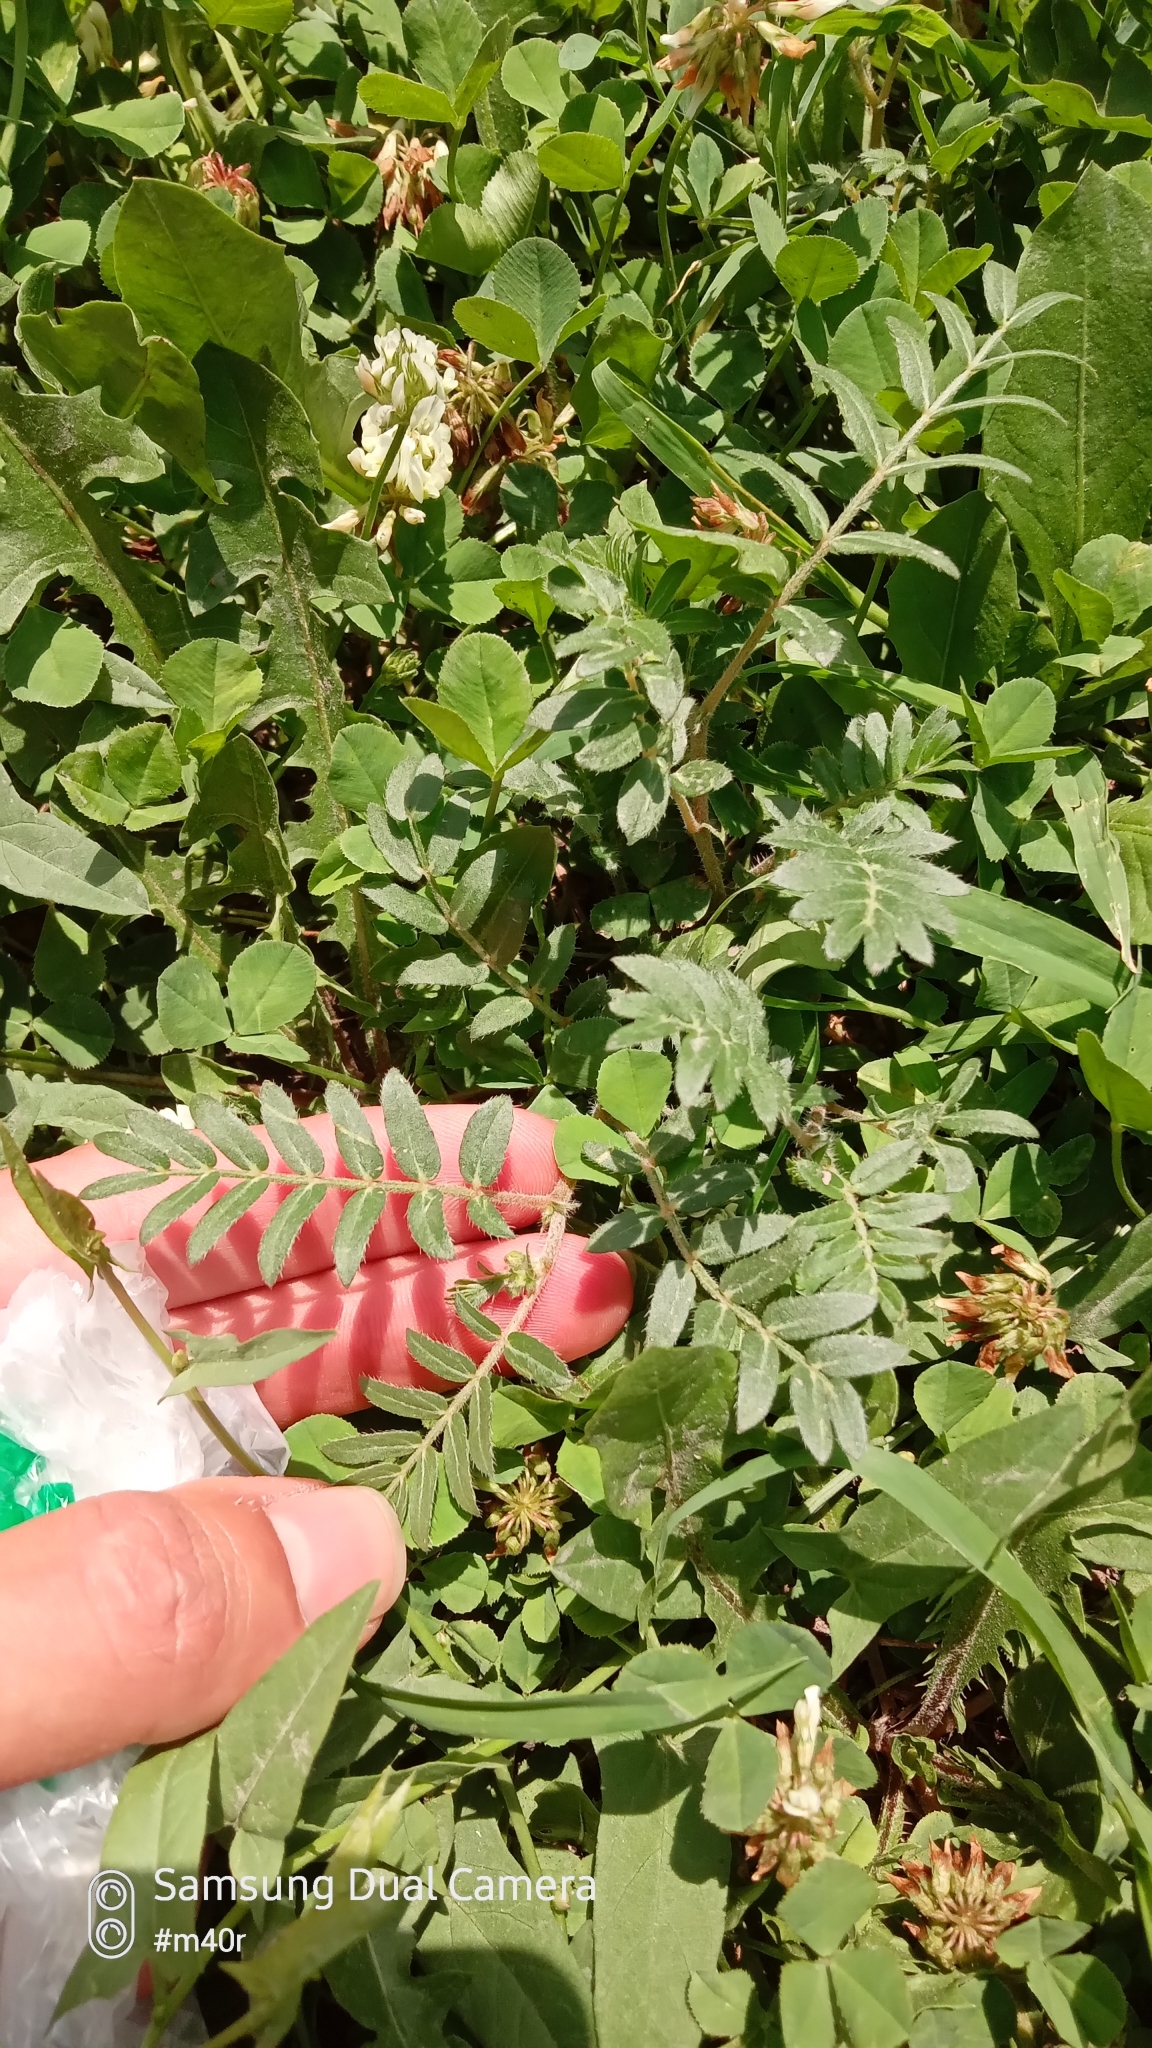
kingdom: Plantae
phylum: Tracheophyta
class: Magnoliopsida
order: Zygophyllales
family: Zygophyllaceae
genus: Tribulus
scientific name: Tribulus terrestris
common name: Puncturevine
